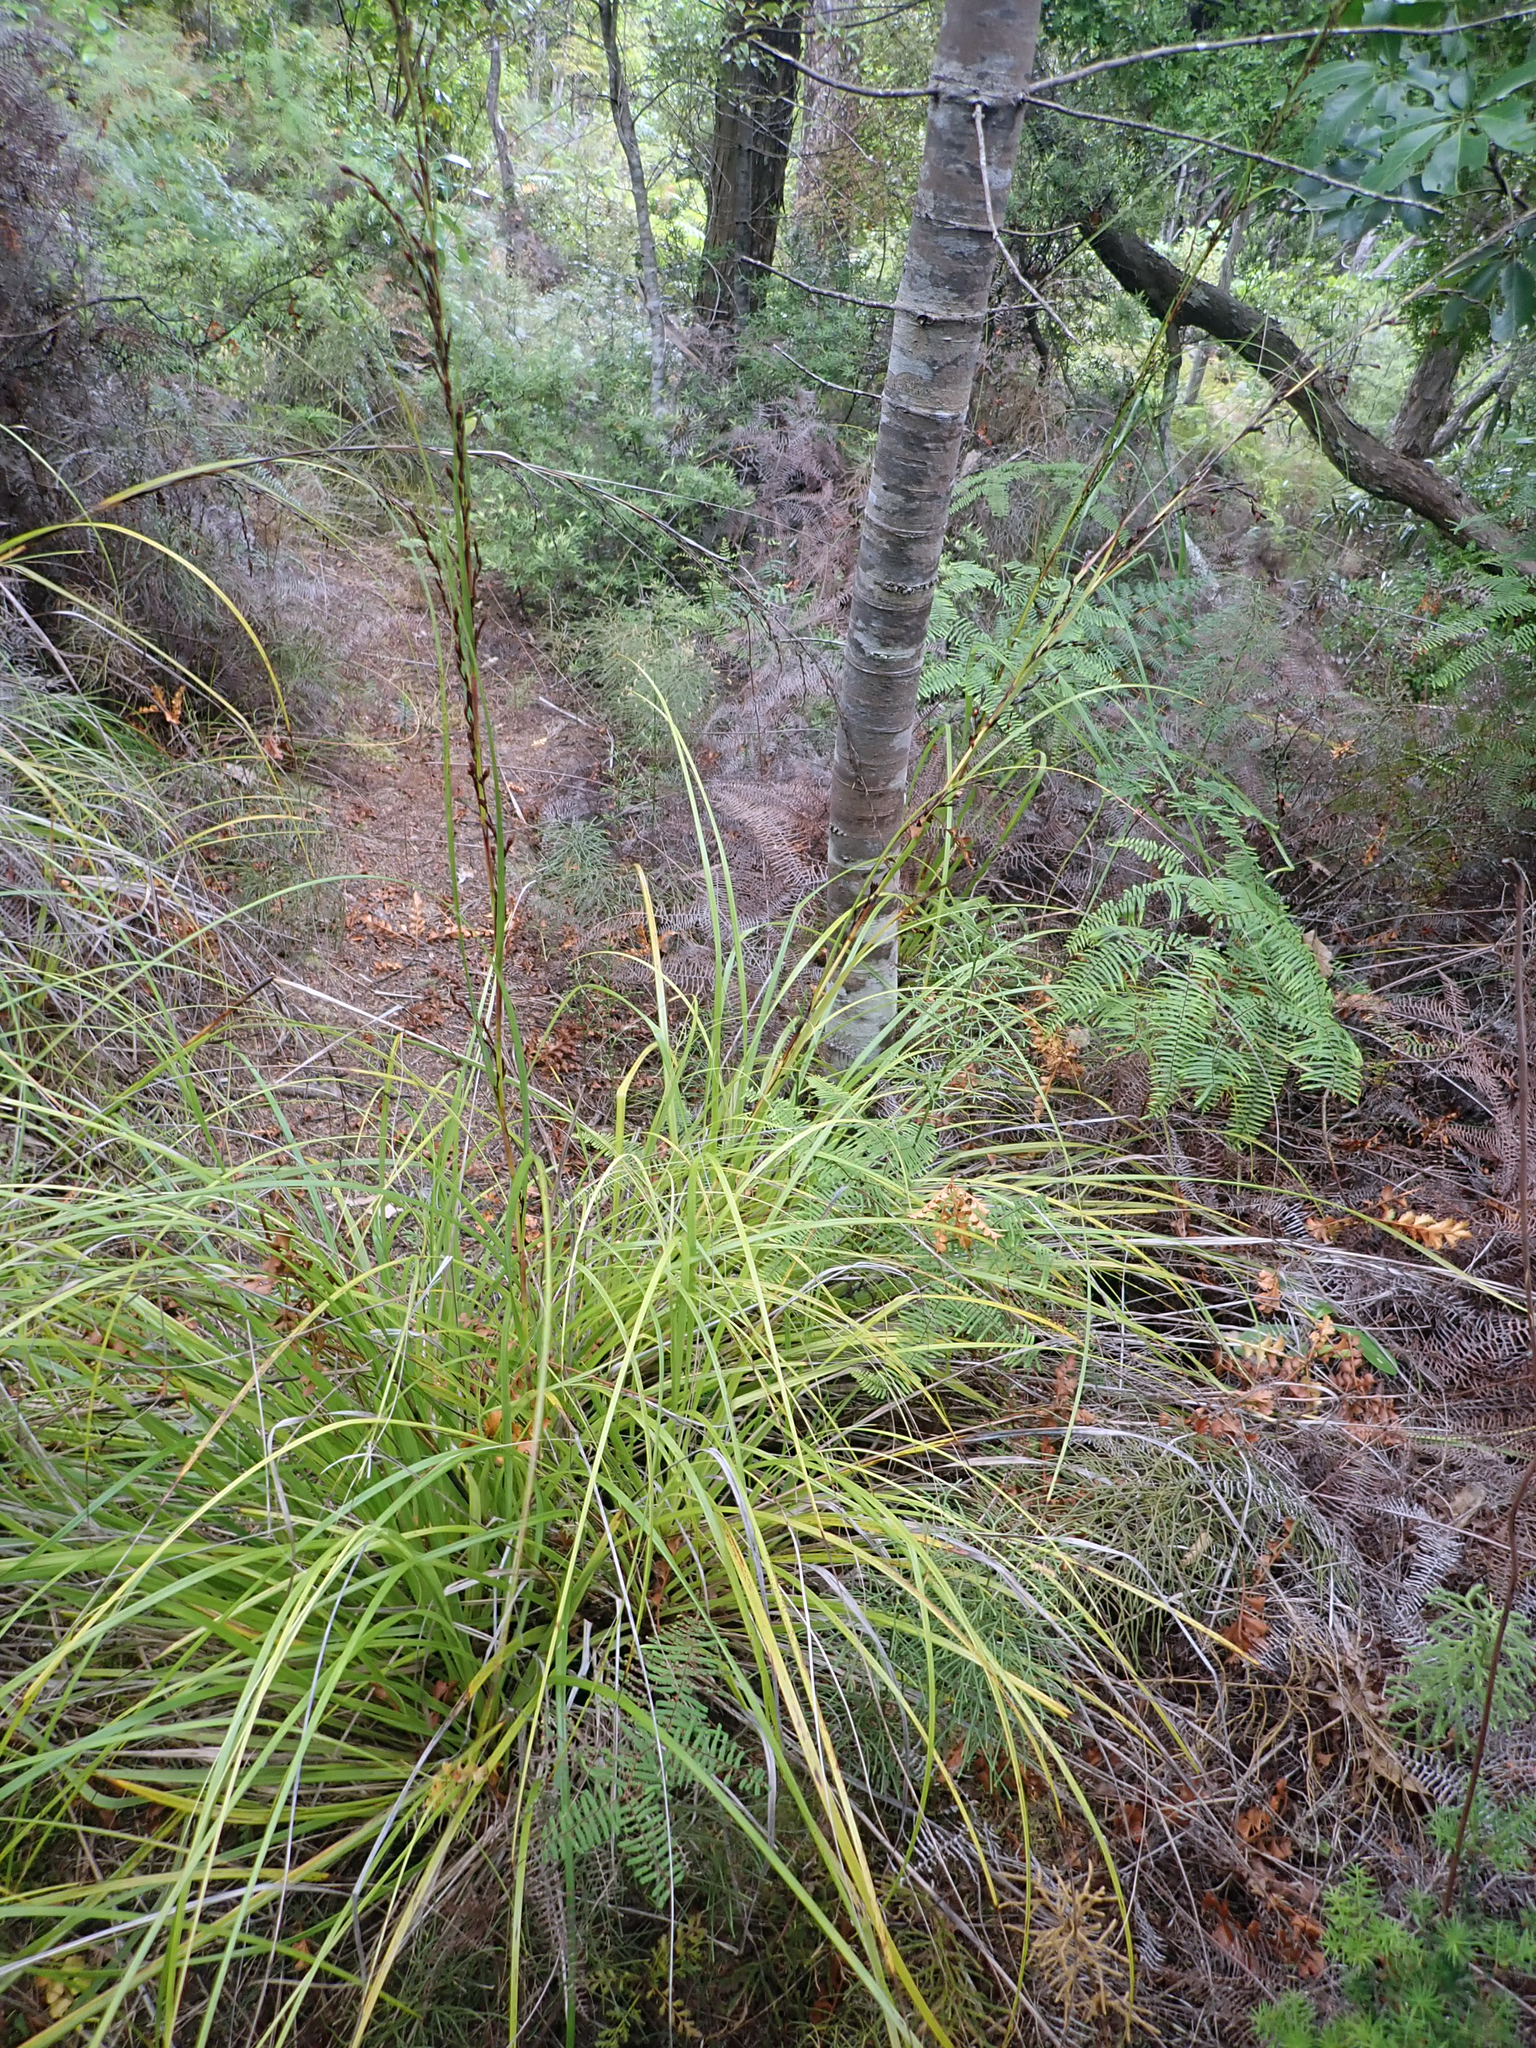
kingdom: Plantae
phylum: Tracheophyta
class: Liliopsida
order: Poales
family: Cyperaceae
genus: Gahnia
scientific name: Gahnia pauciflora
